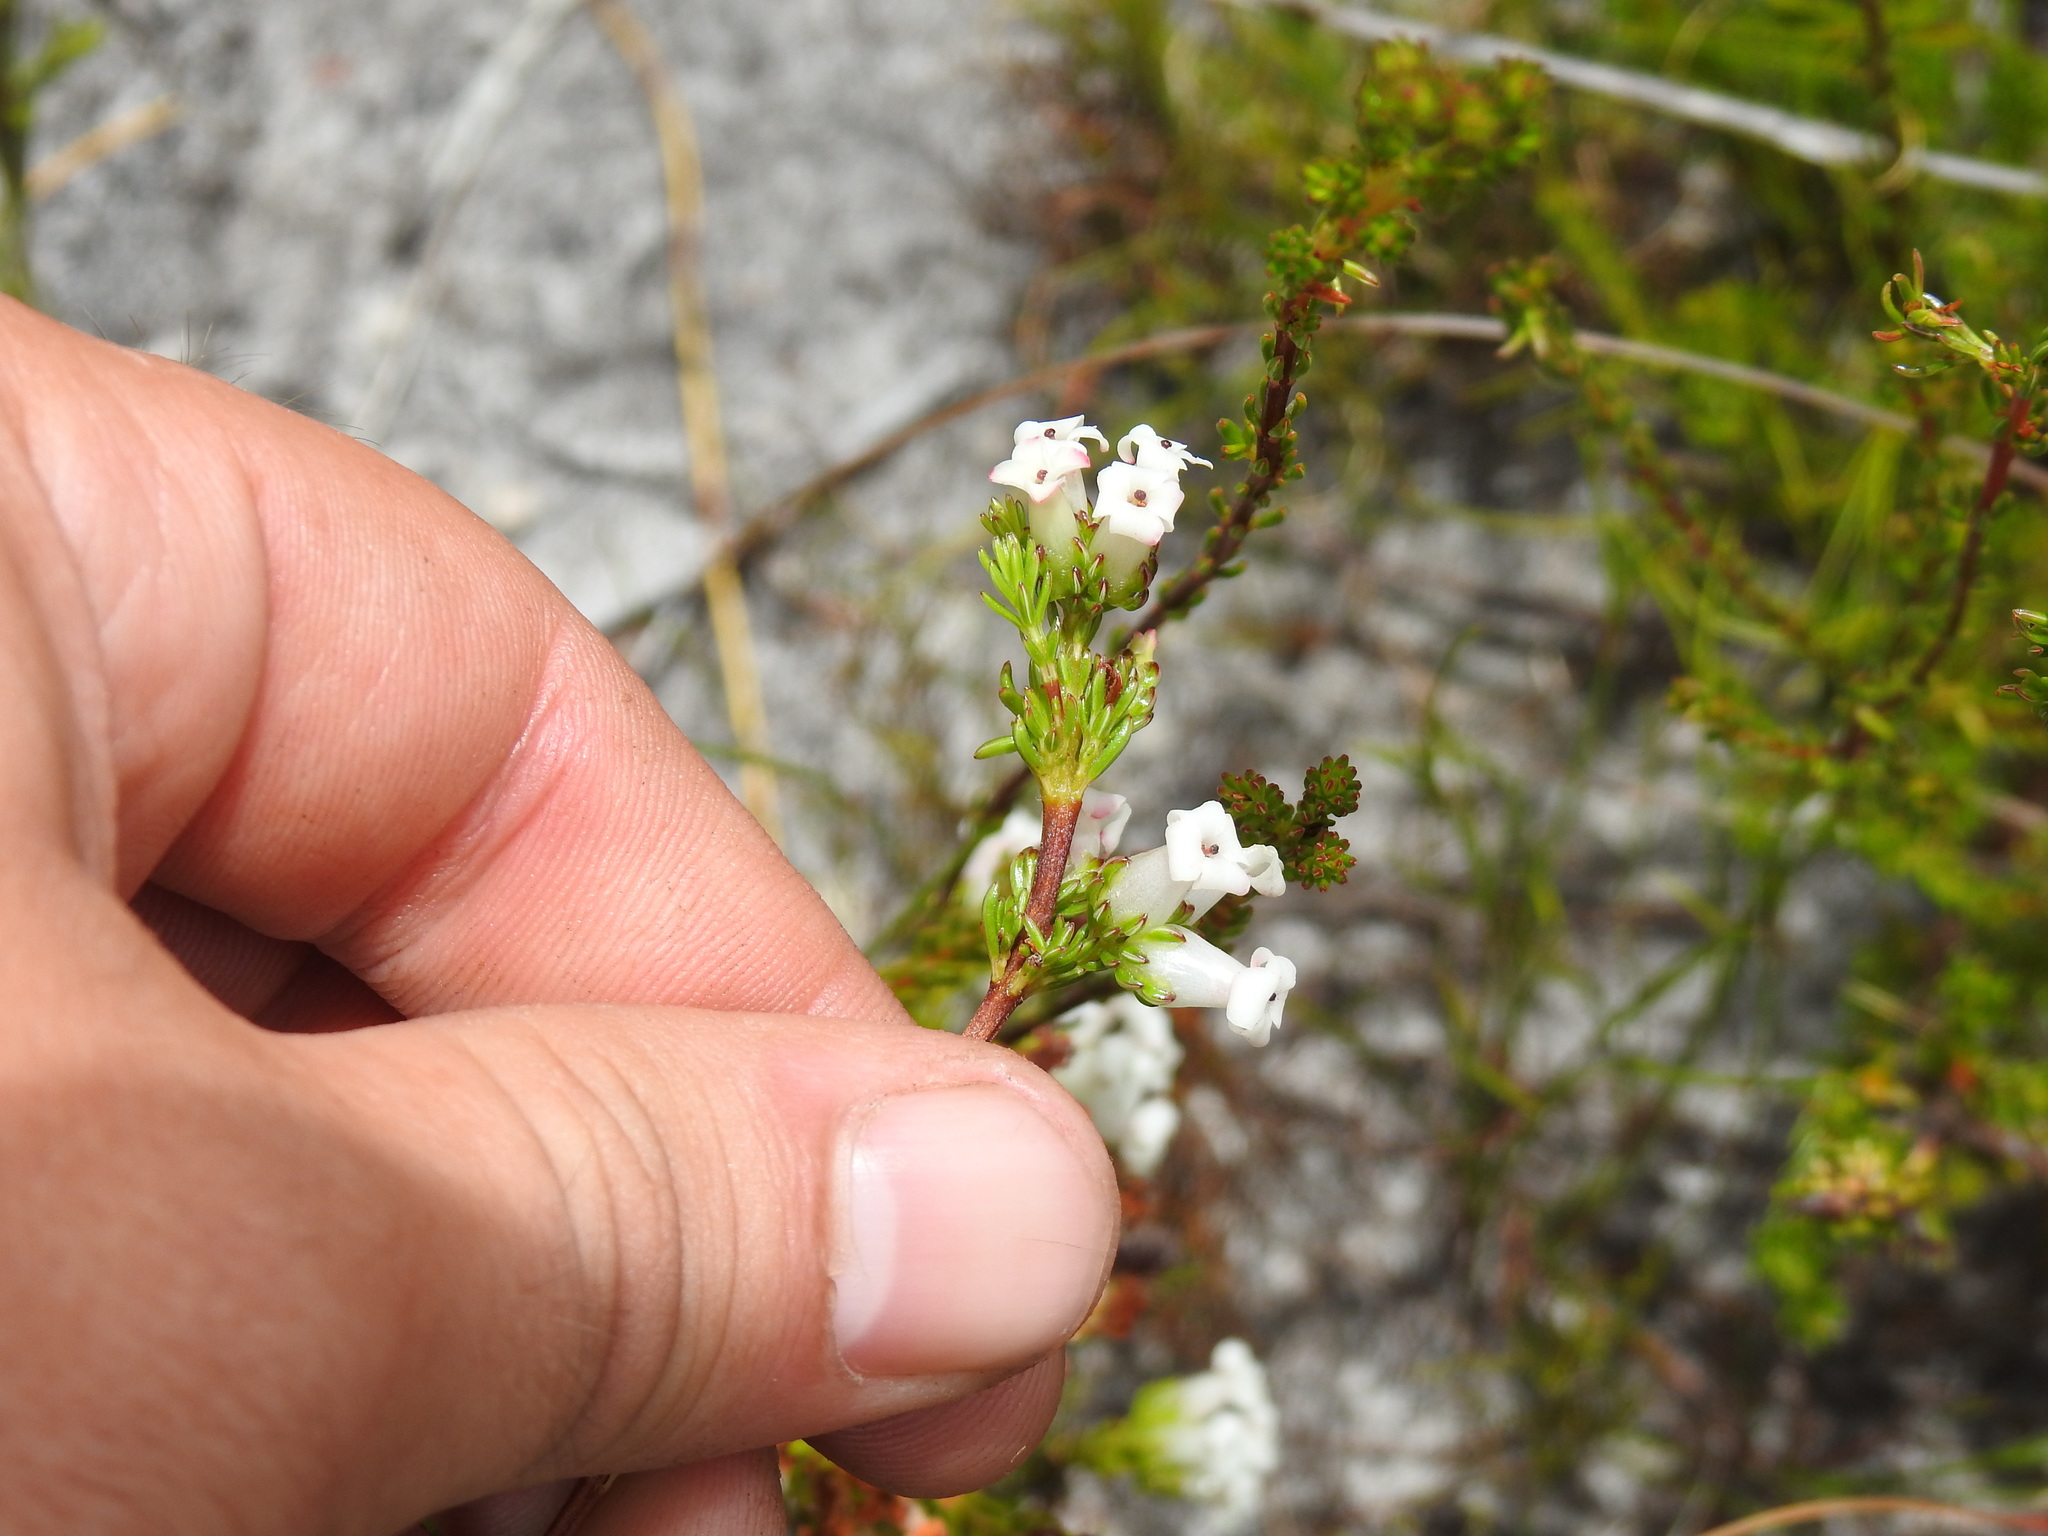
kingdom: Plantae
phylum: Tracheophyta
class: Magnoliopsida
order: Ericales
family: Ericaceae
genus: Erica
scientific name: Erica denticulata
